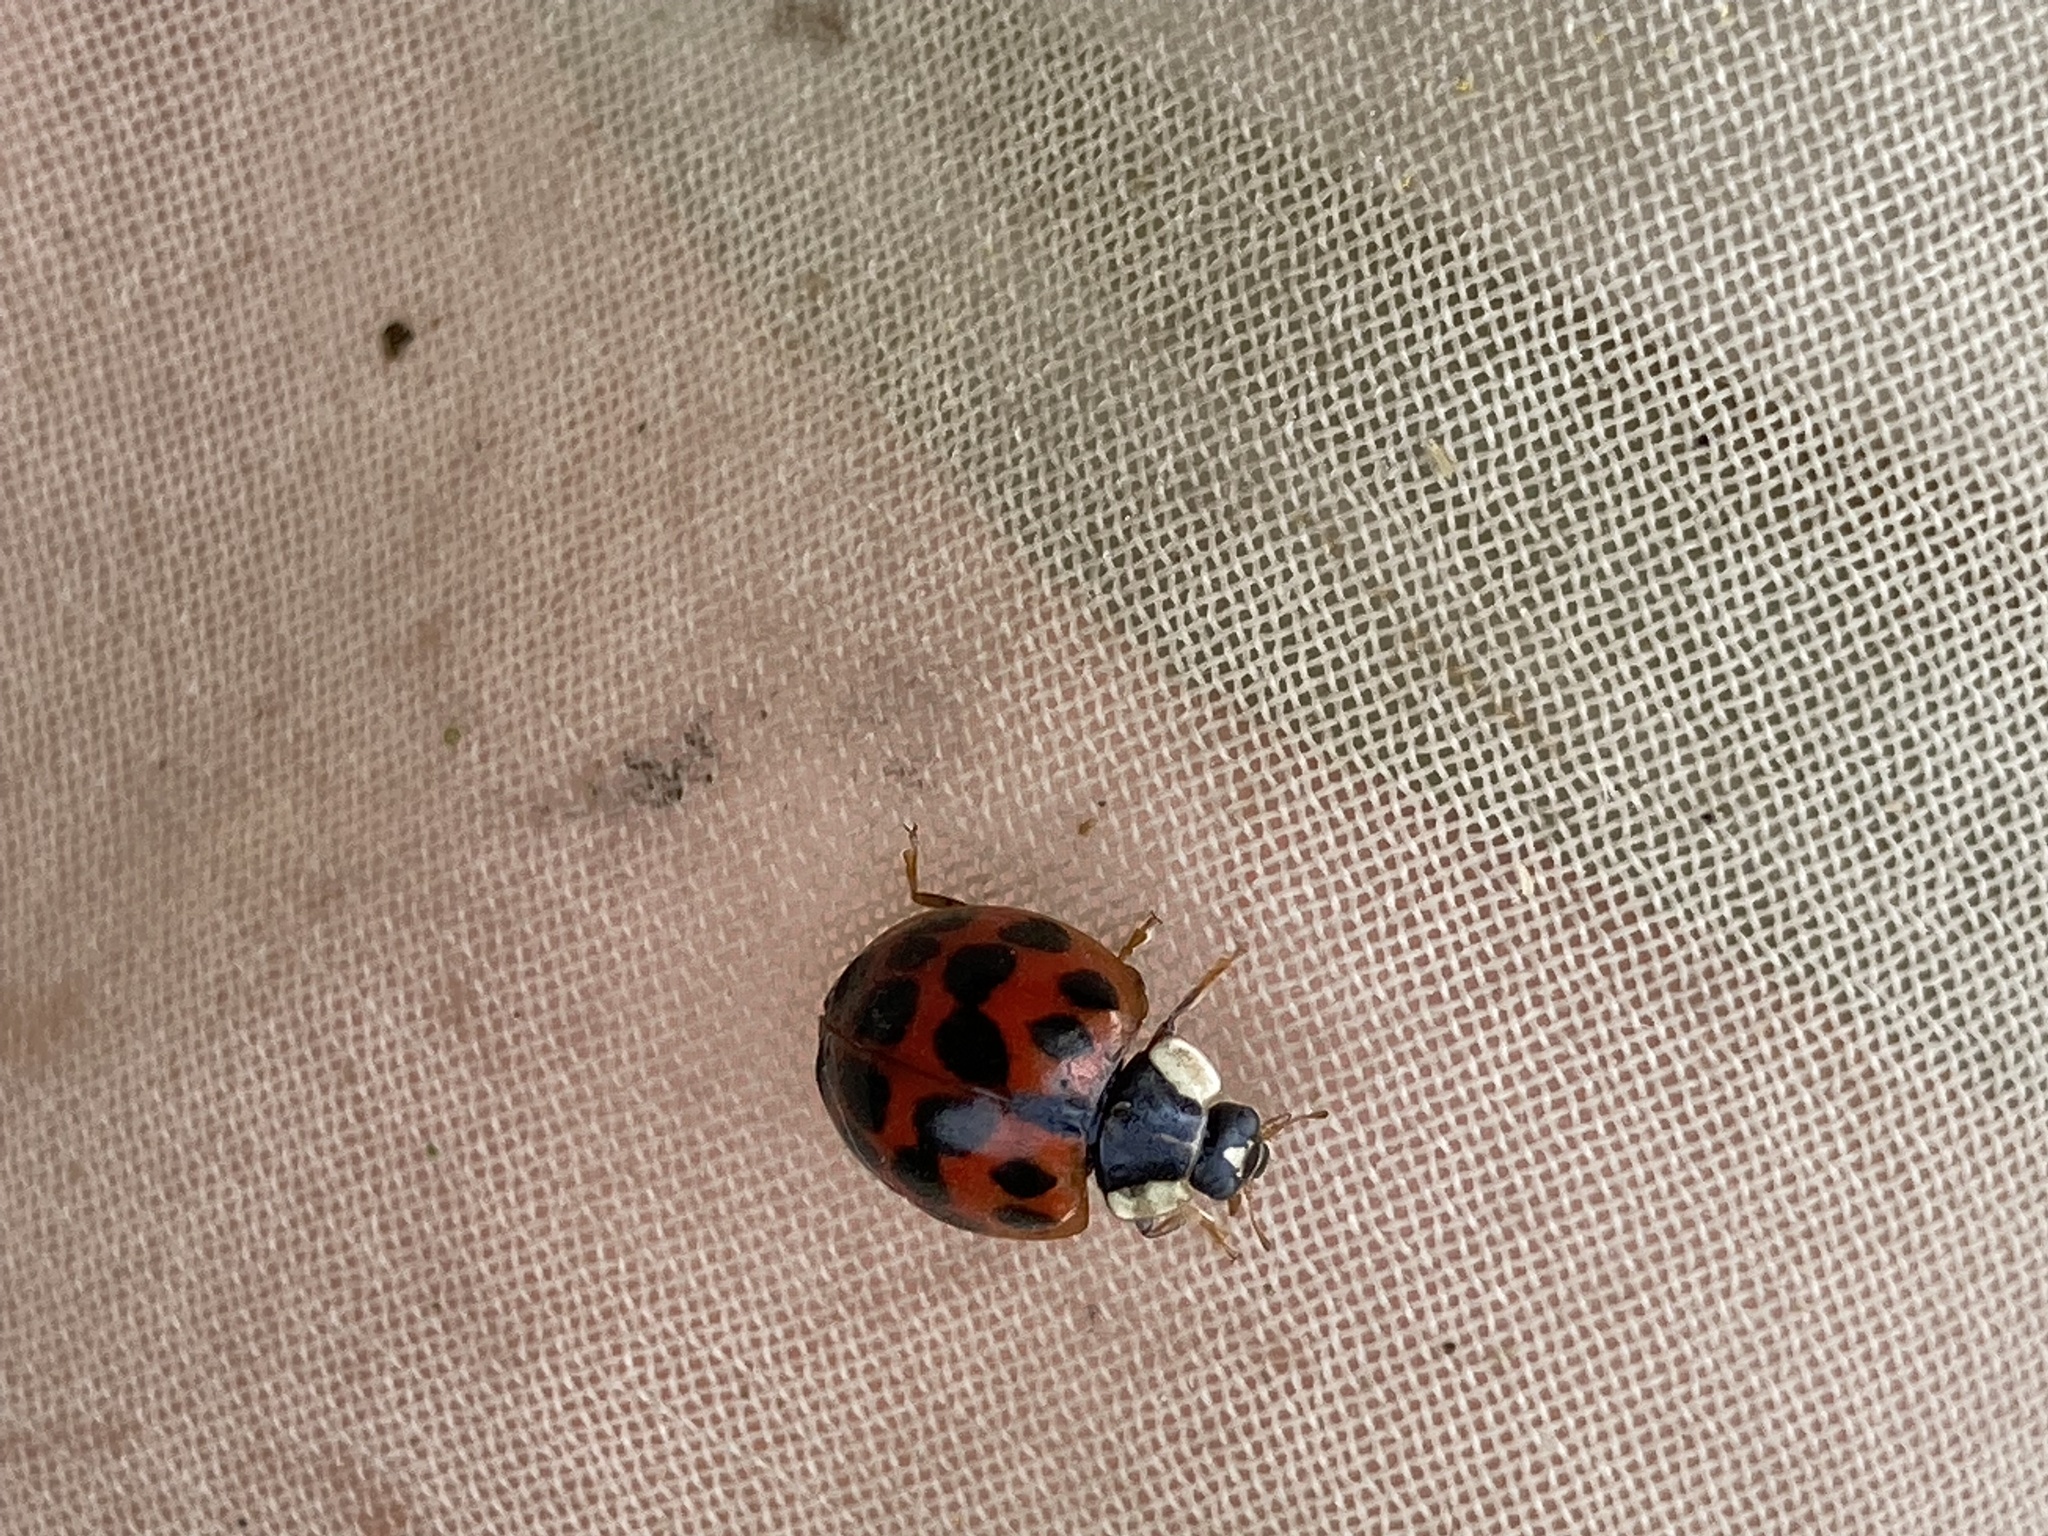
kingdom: Animalia
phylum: Arthropoda
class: Insecta
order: Coleoptera
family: Coccinellidae
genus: Harmonia
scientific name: Harmonia axyridis
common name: Harlequin ladybird
